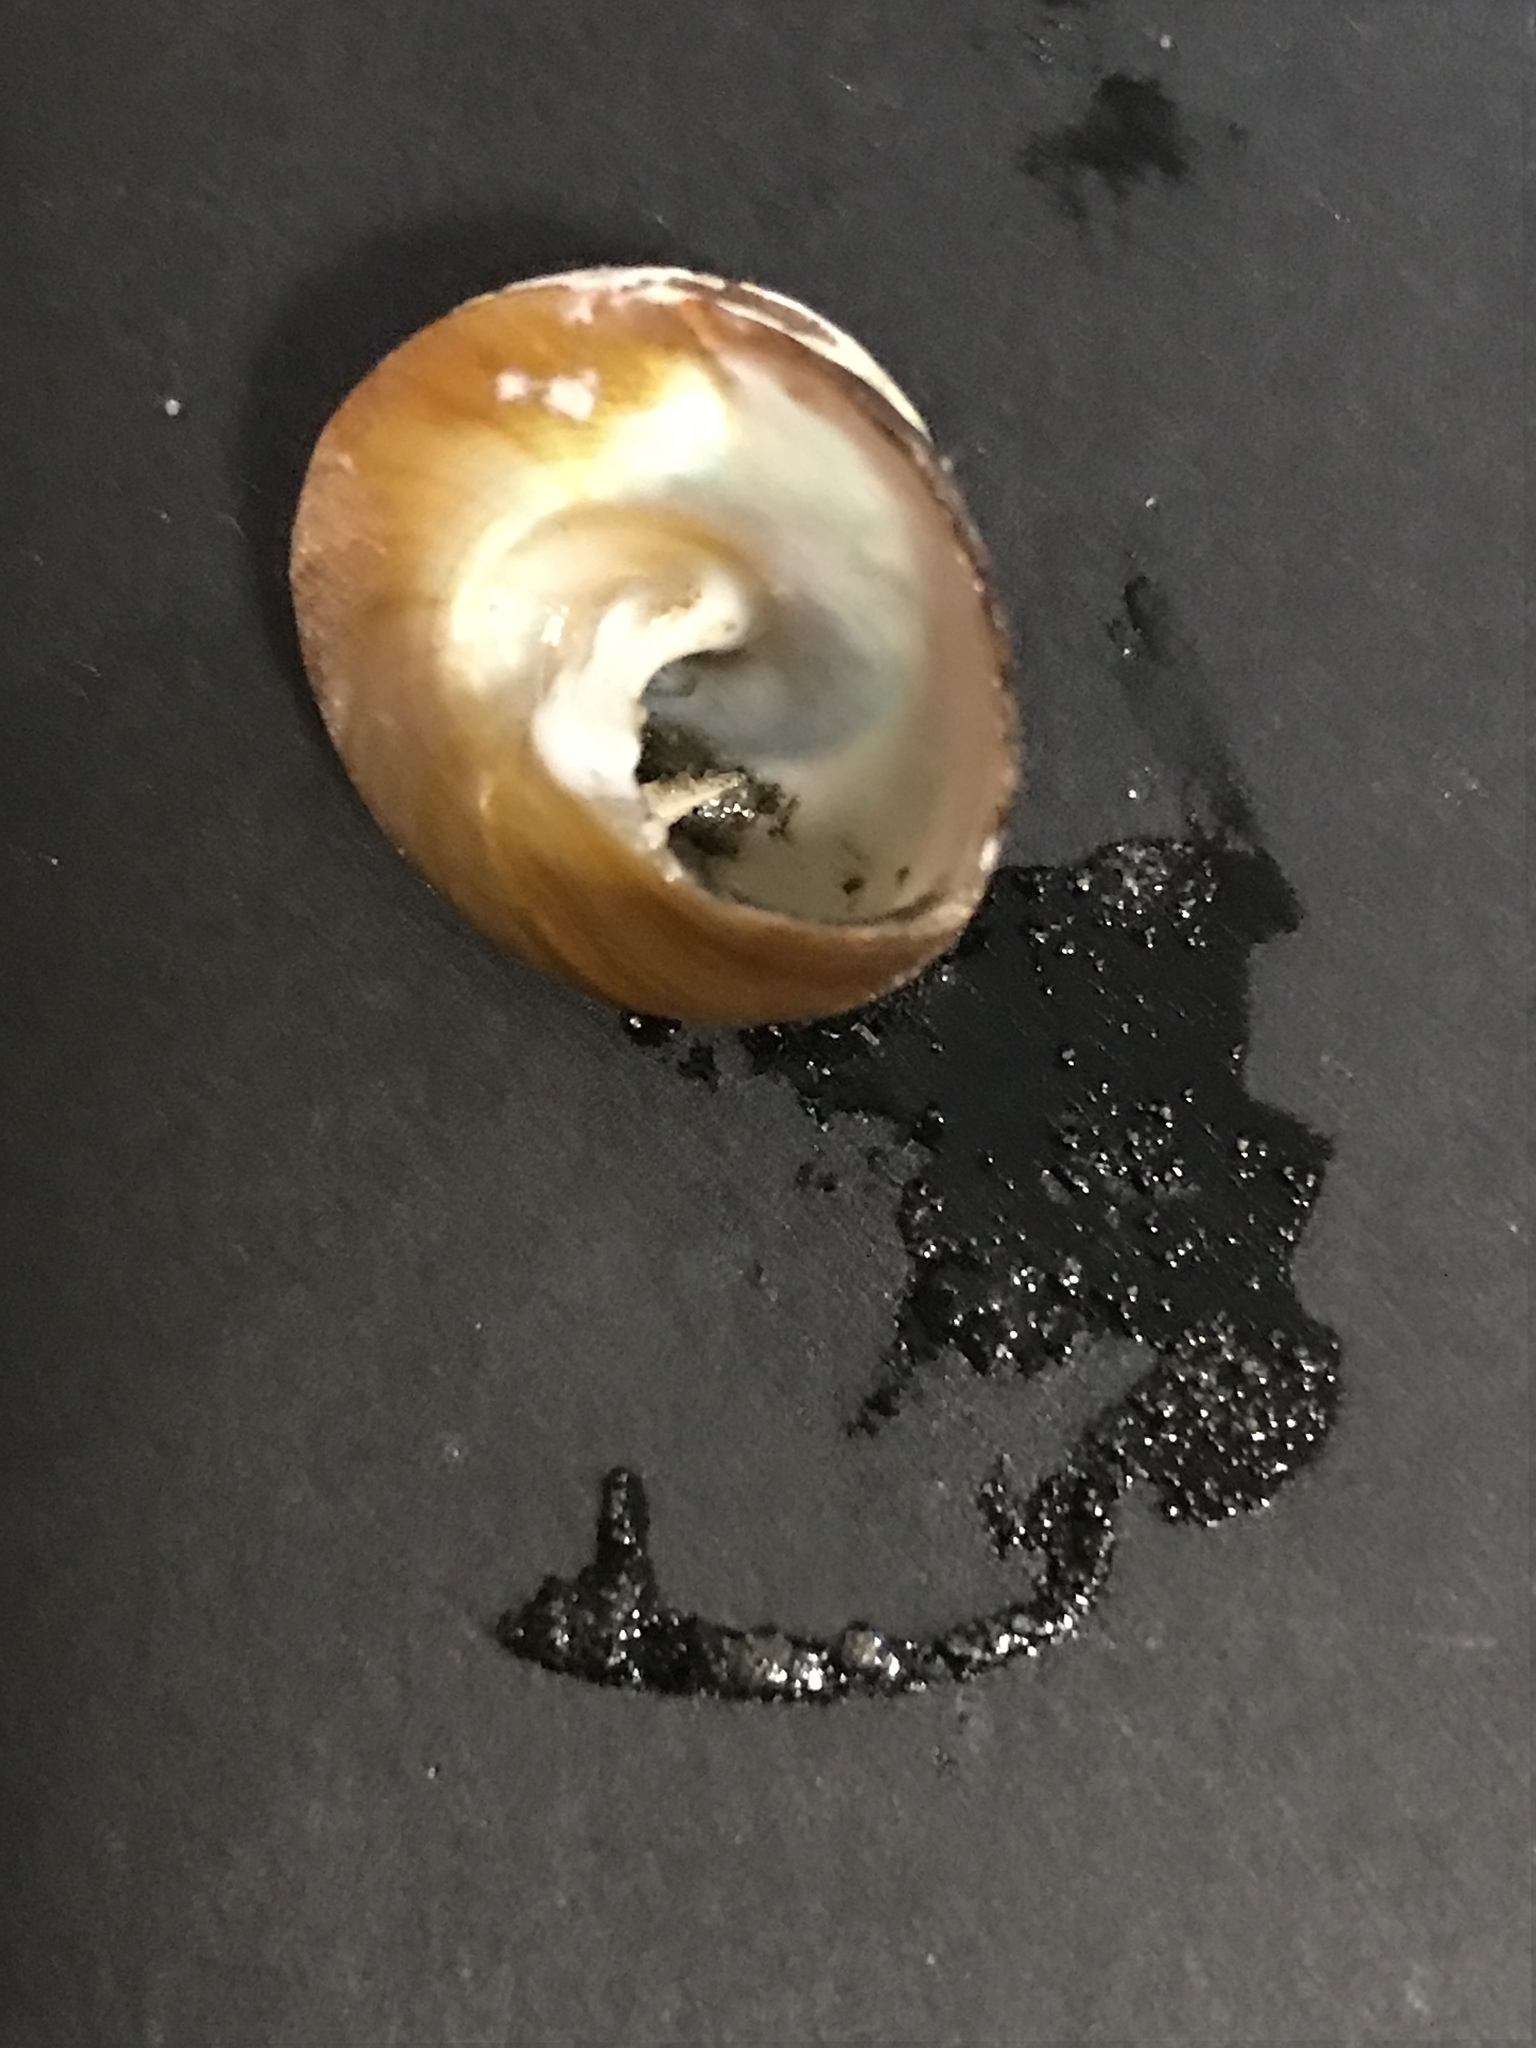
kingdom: Animalia
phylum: Mollusca
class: Gastropoda
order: Trochida
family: Tegulidae
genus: Tegula
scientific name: Tegula brunnea
